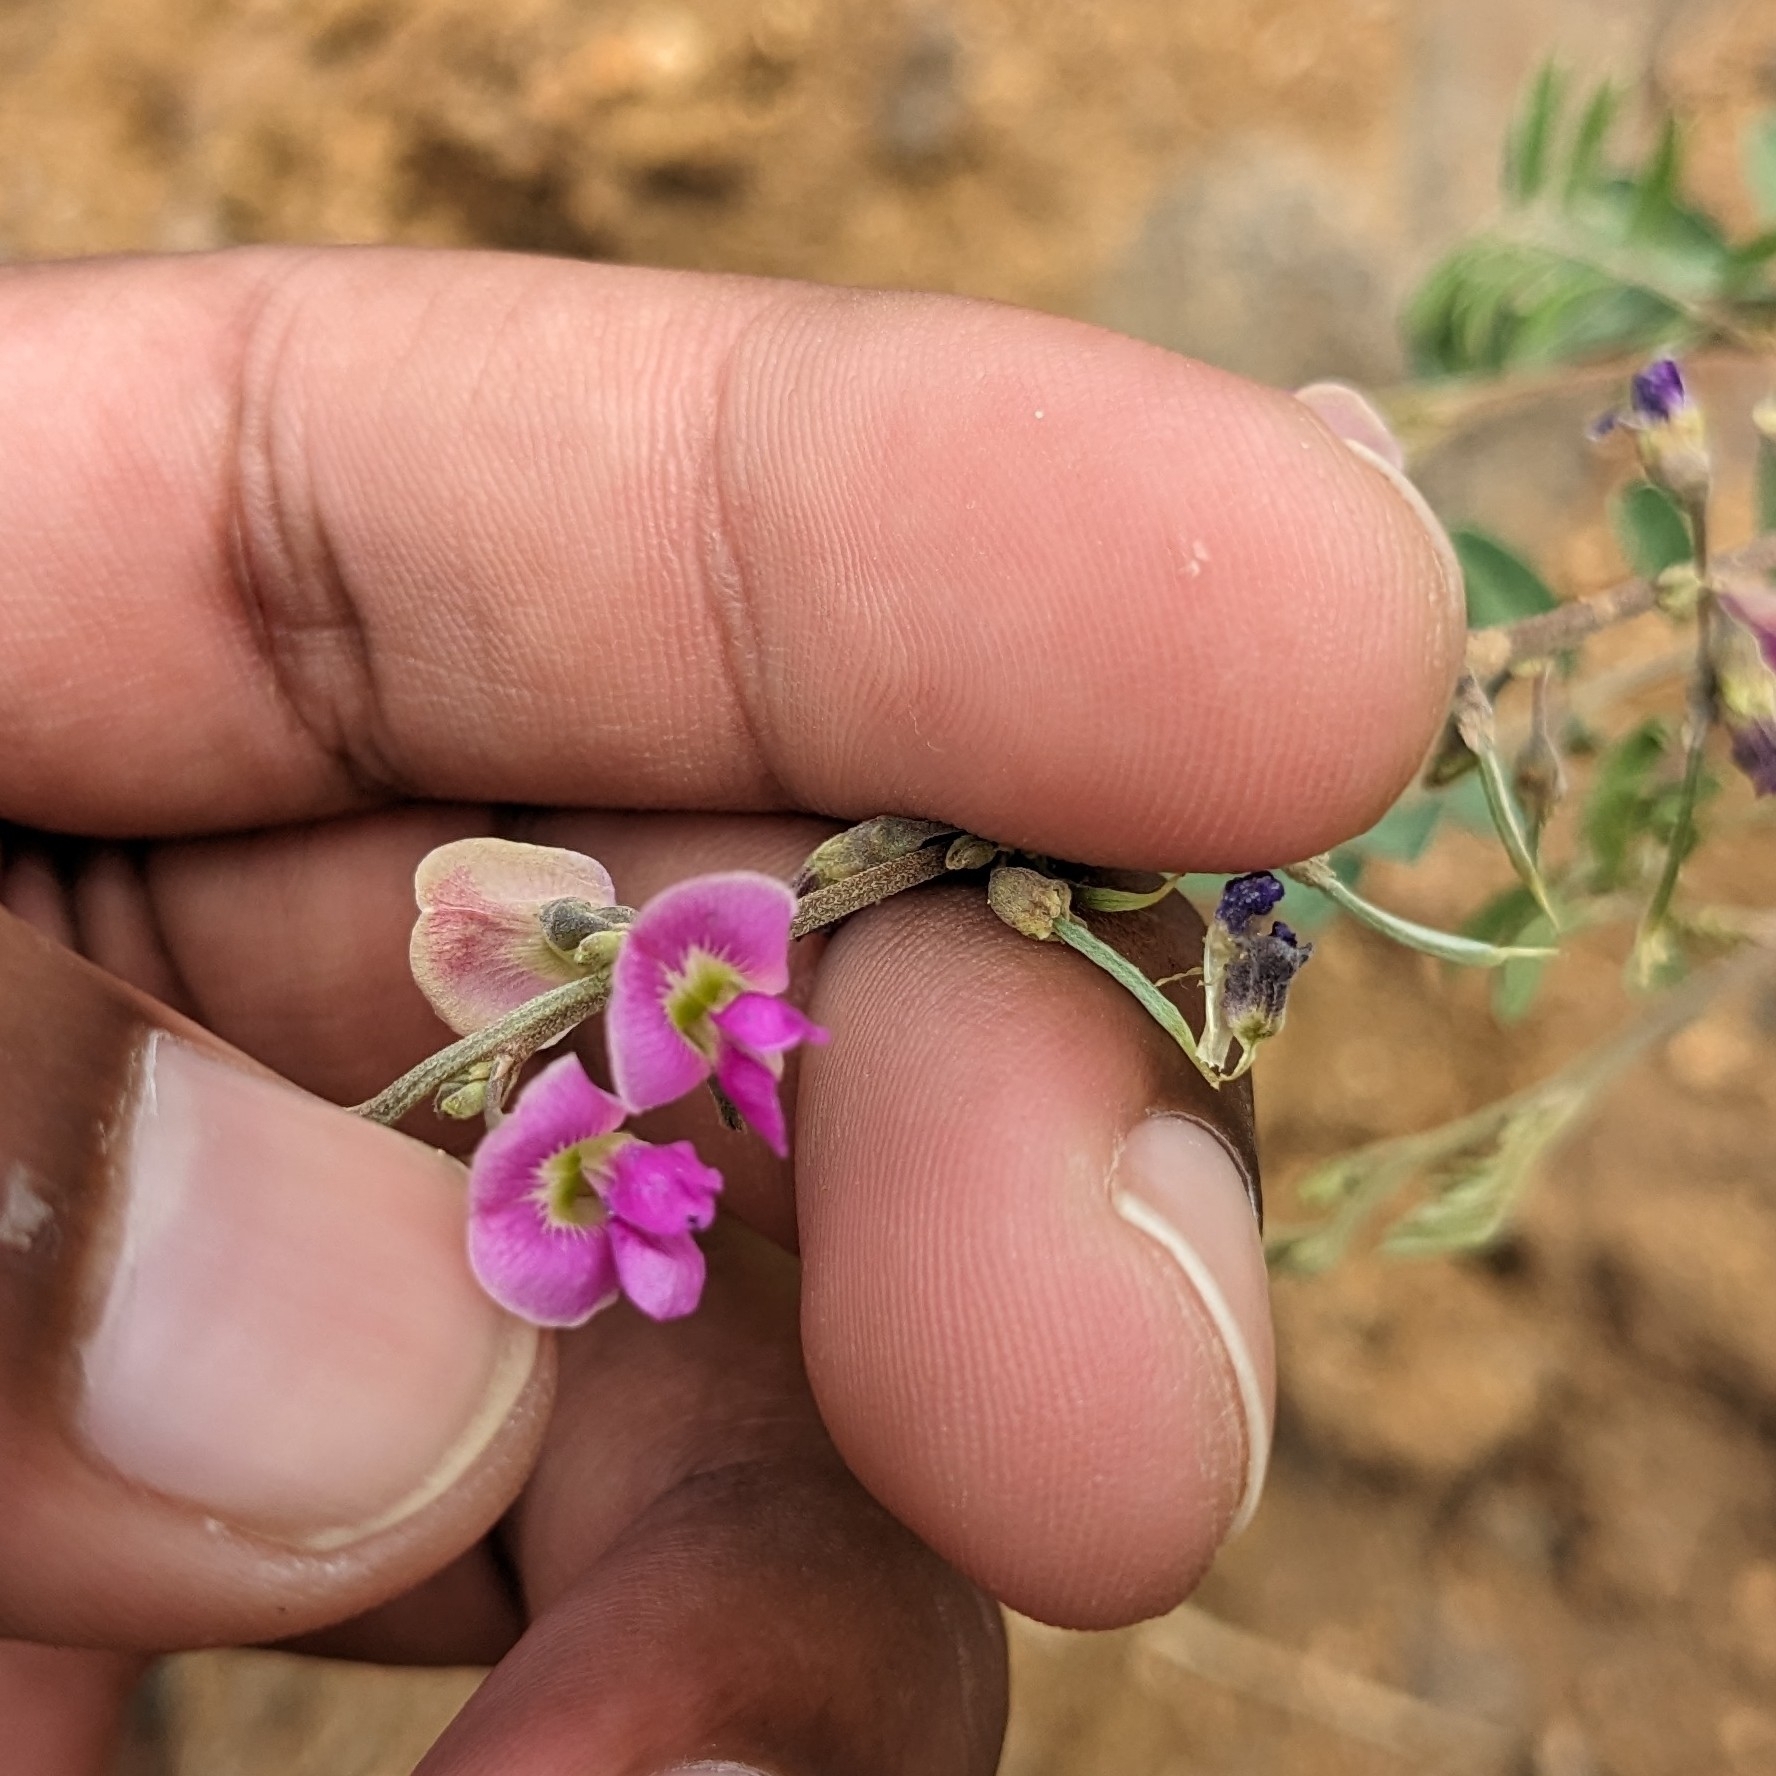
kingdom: Plantae
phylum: Tracheophyta
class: Magnoliopsida
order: Fabales
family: Fabaceae
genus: Tephrosia
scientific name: Tephrosia purpurea
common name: Fishpoison
